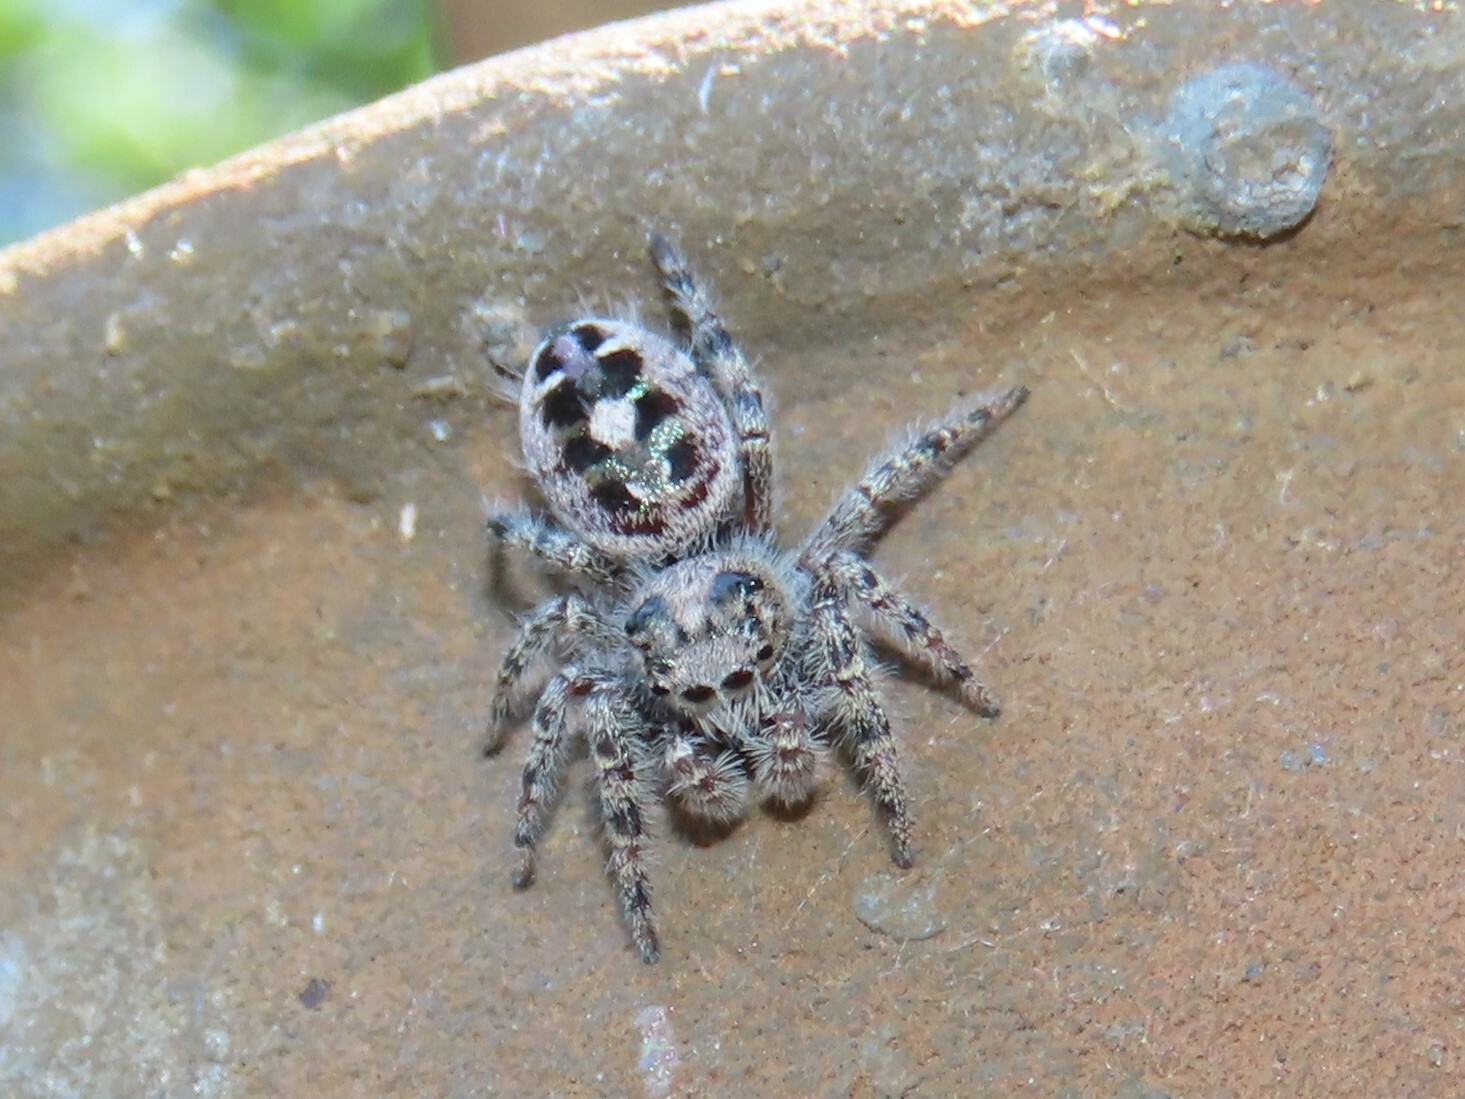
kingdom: Animalia
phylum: Arthropoda
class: Arachnida
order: Araneae
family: Salticidae
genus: Phidippus
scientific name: Phidippus putnami
